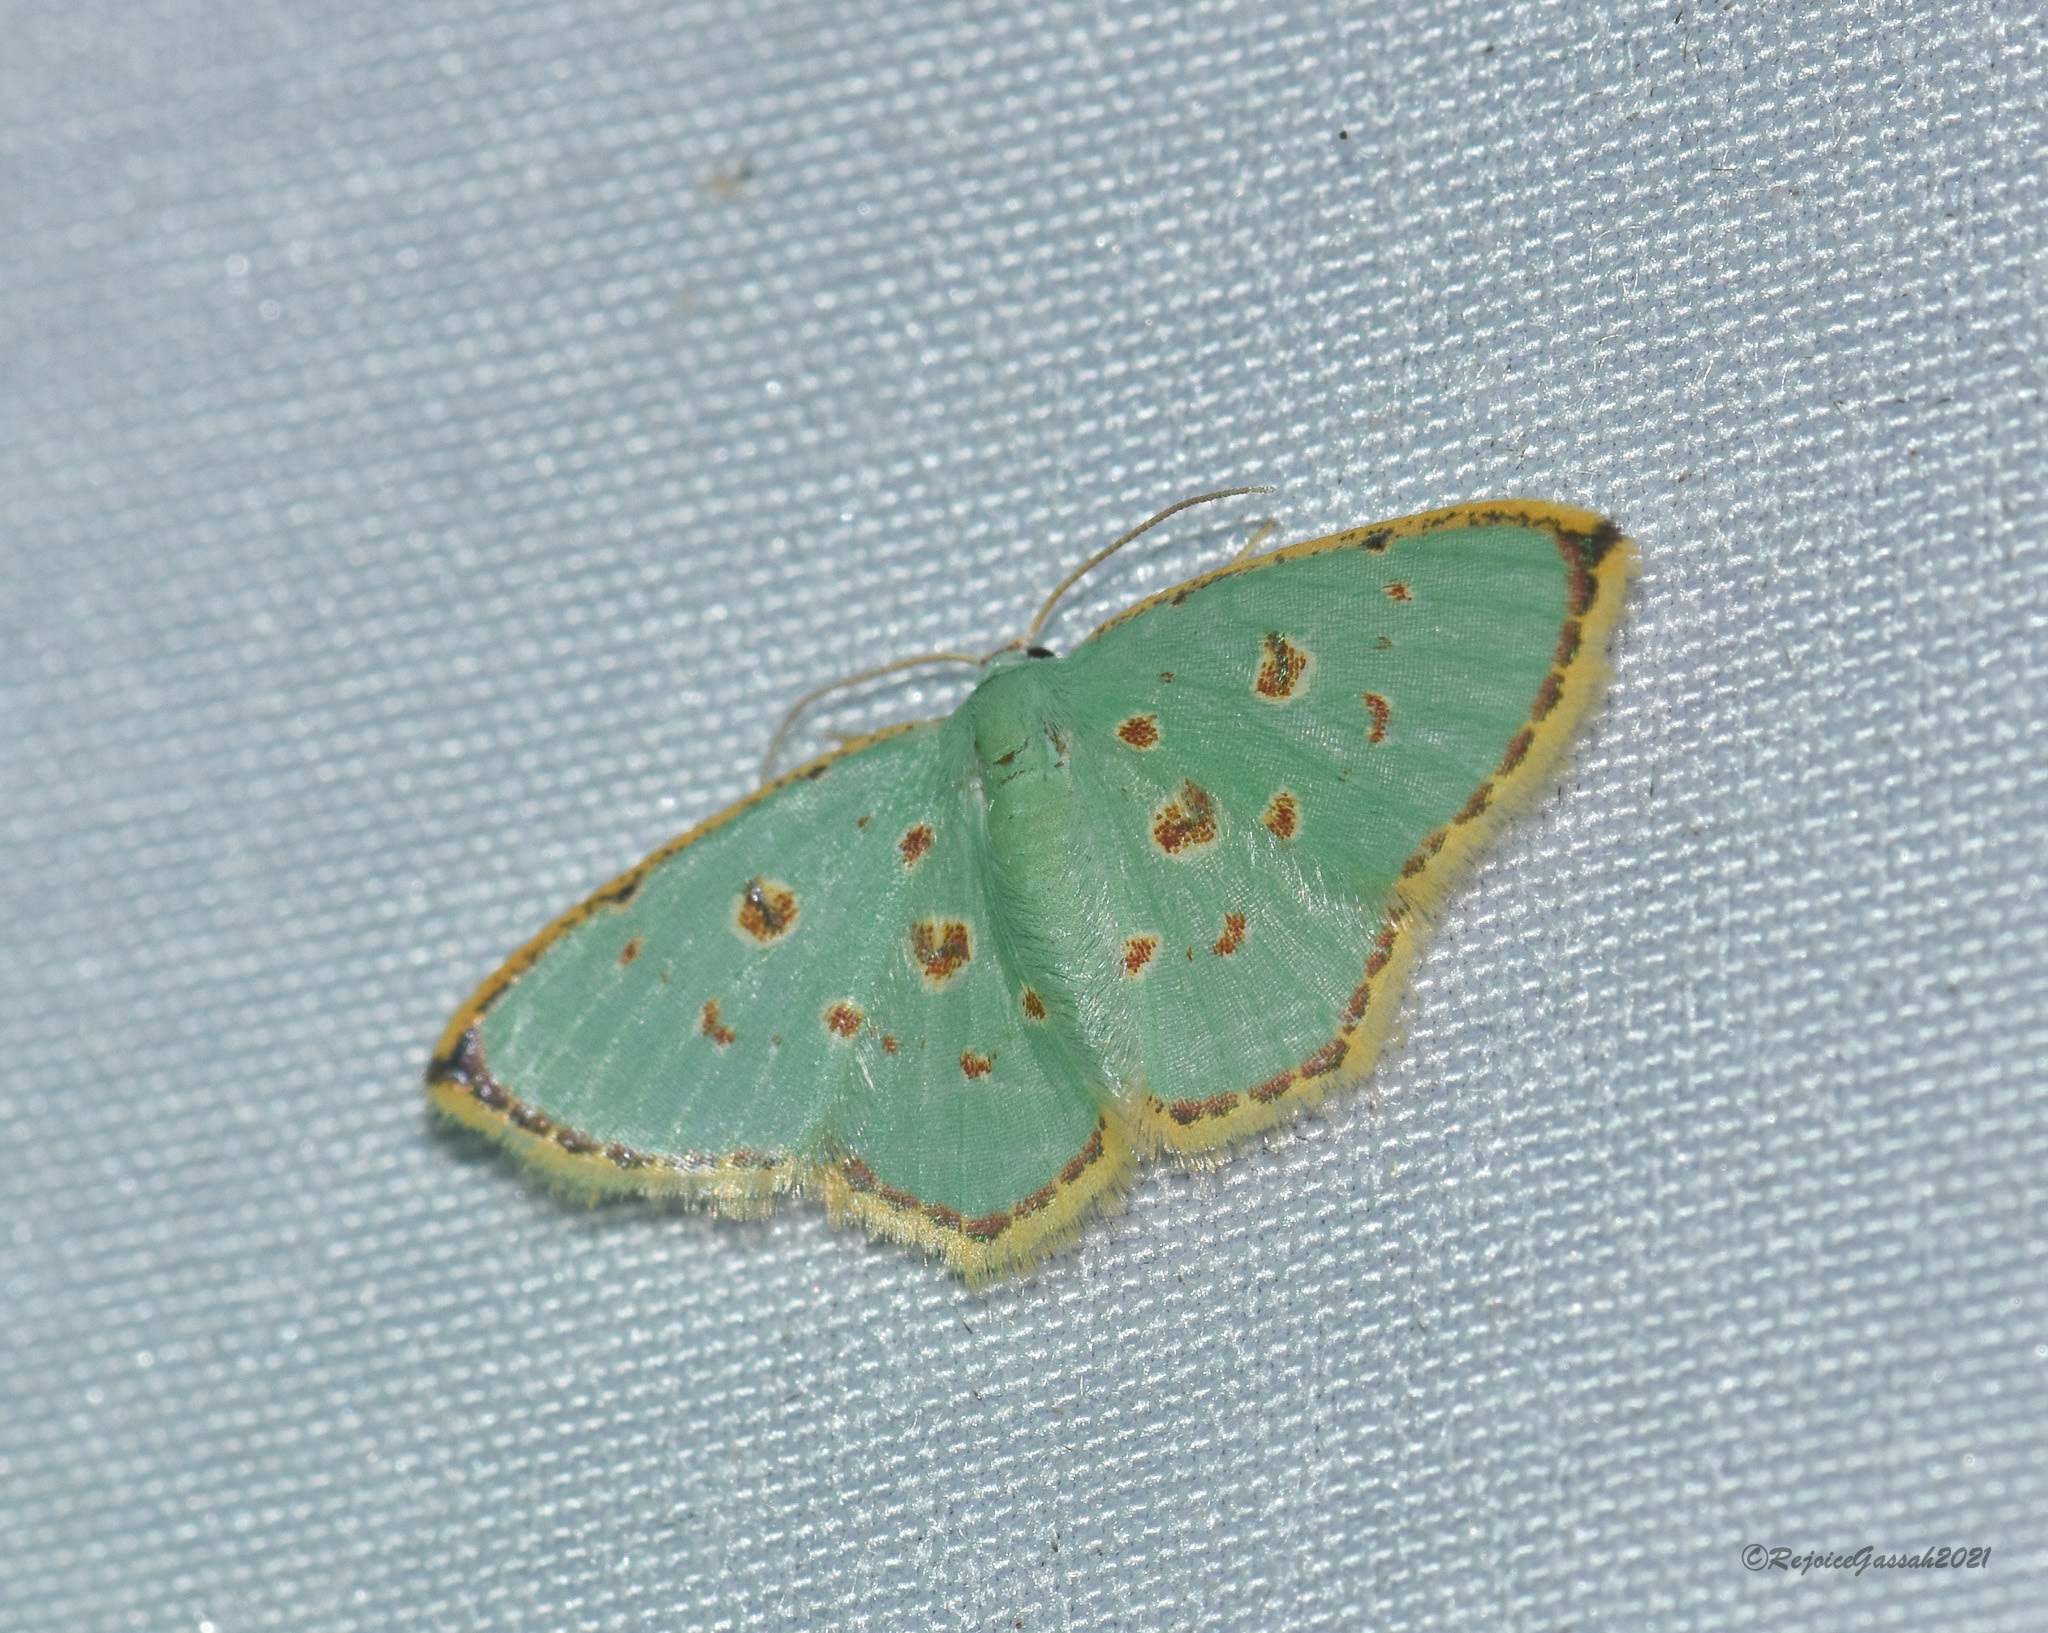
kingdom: Animalia
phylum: Arthropoda
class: Insecta
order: Lepidoptera
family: Geometridae
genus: Comostola
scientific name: Comostola laesaria
